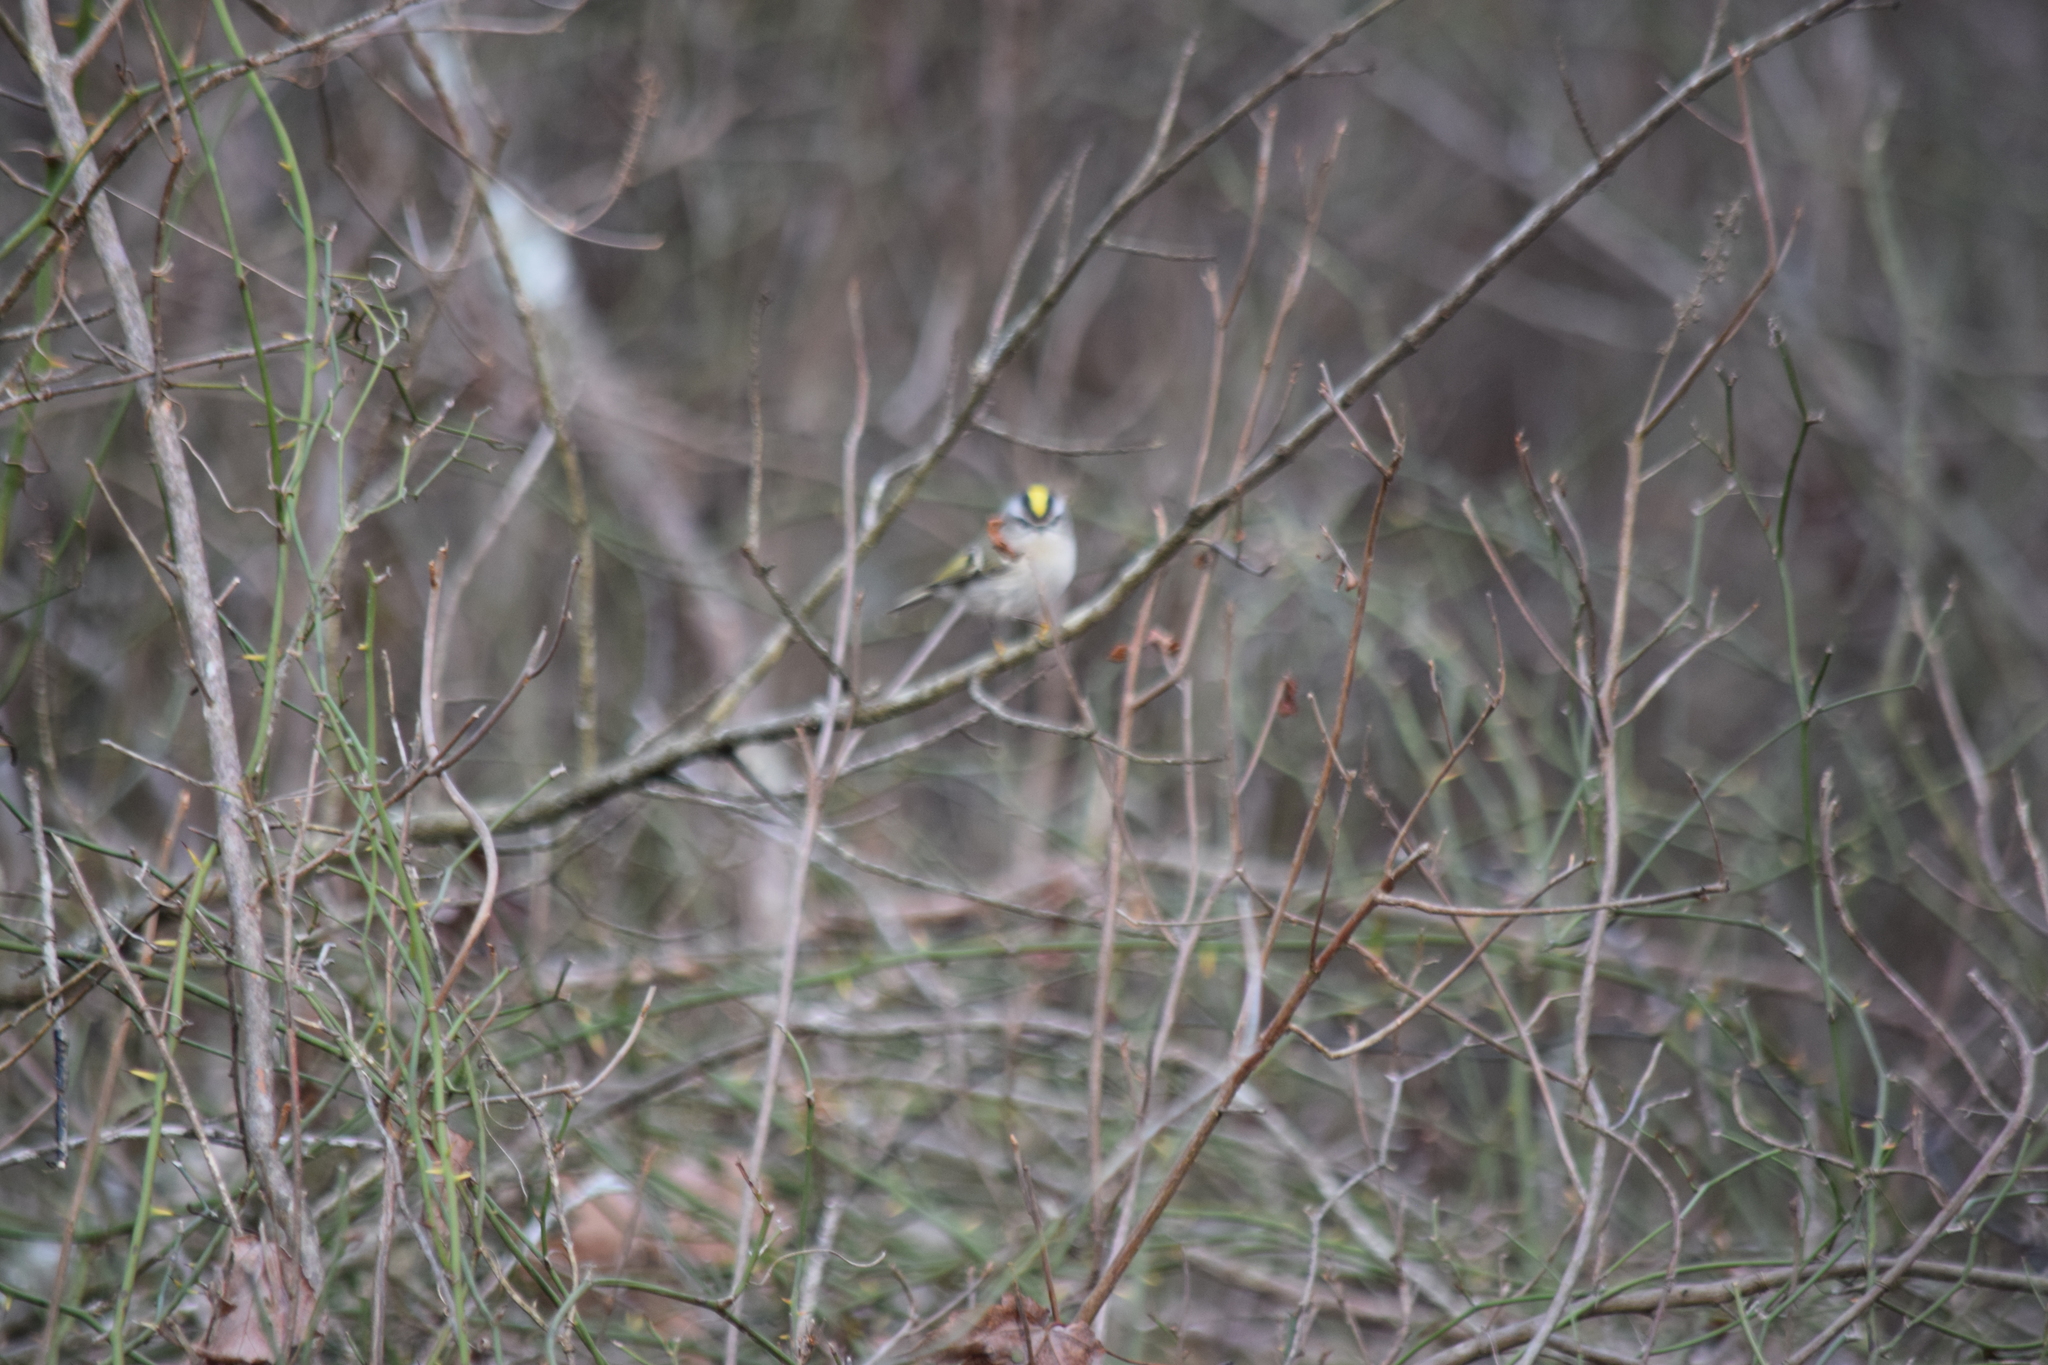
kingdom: Animalia
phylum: Chordata
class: Aves
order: Passeriformes
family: Regulidae
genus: Regulus
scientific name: Regulus satrapa
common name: Golden-crowned kinglet
